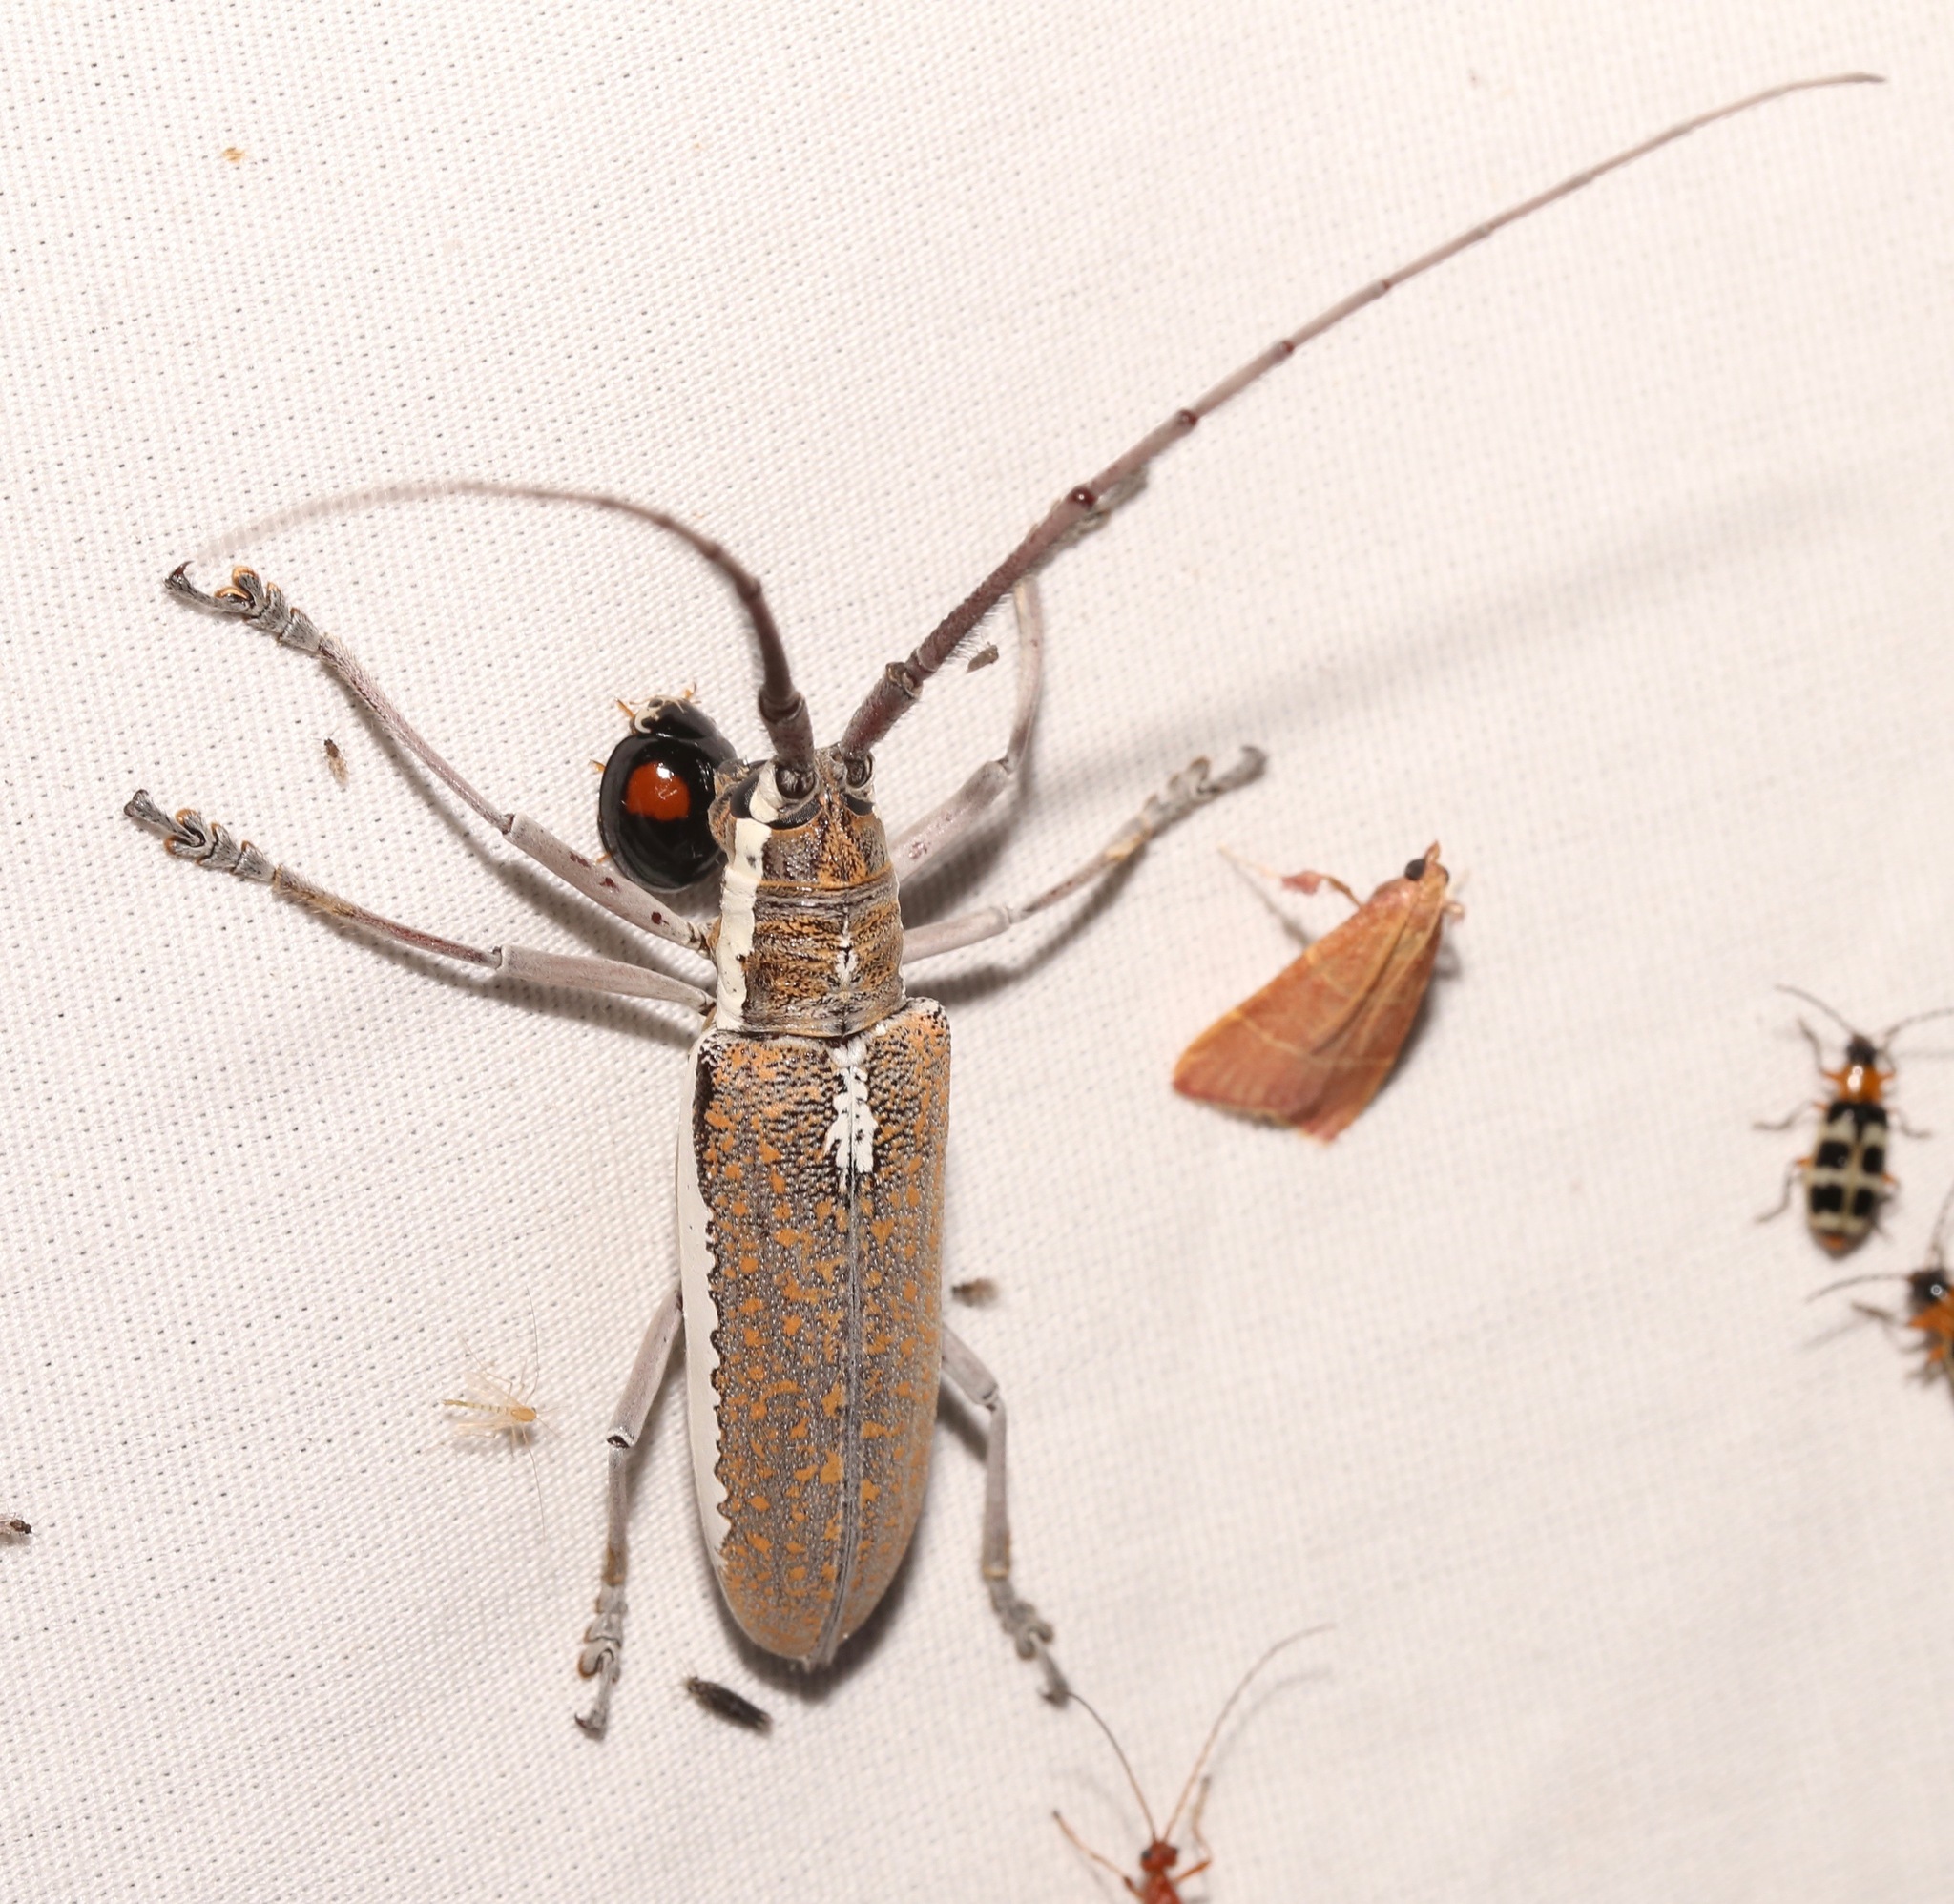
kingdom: Animalia
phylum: Arthropoda
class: Insecta
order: Coleoptera
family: Cerambycidae
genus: Neoptychodes
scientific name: Neoptychodes trilineatus
